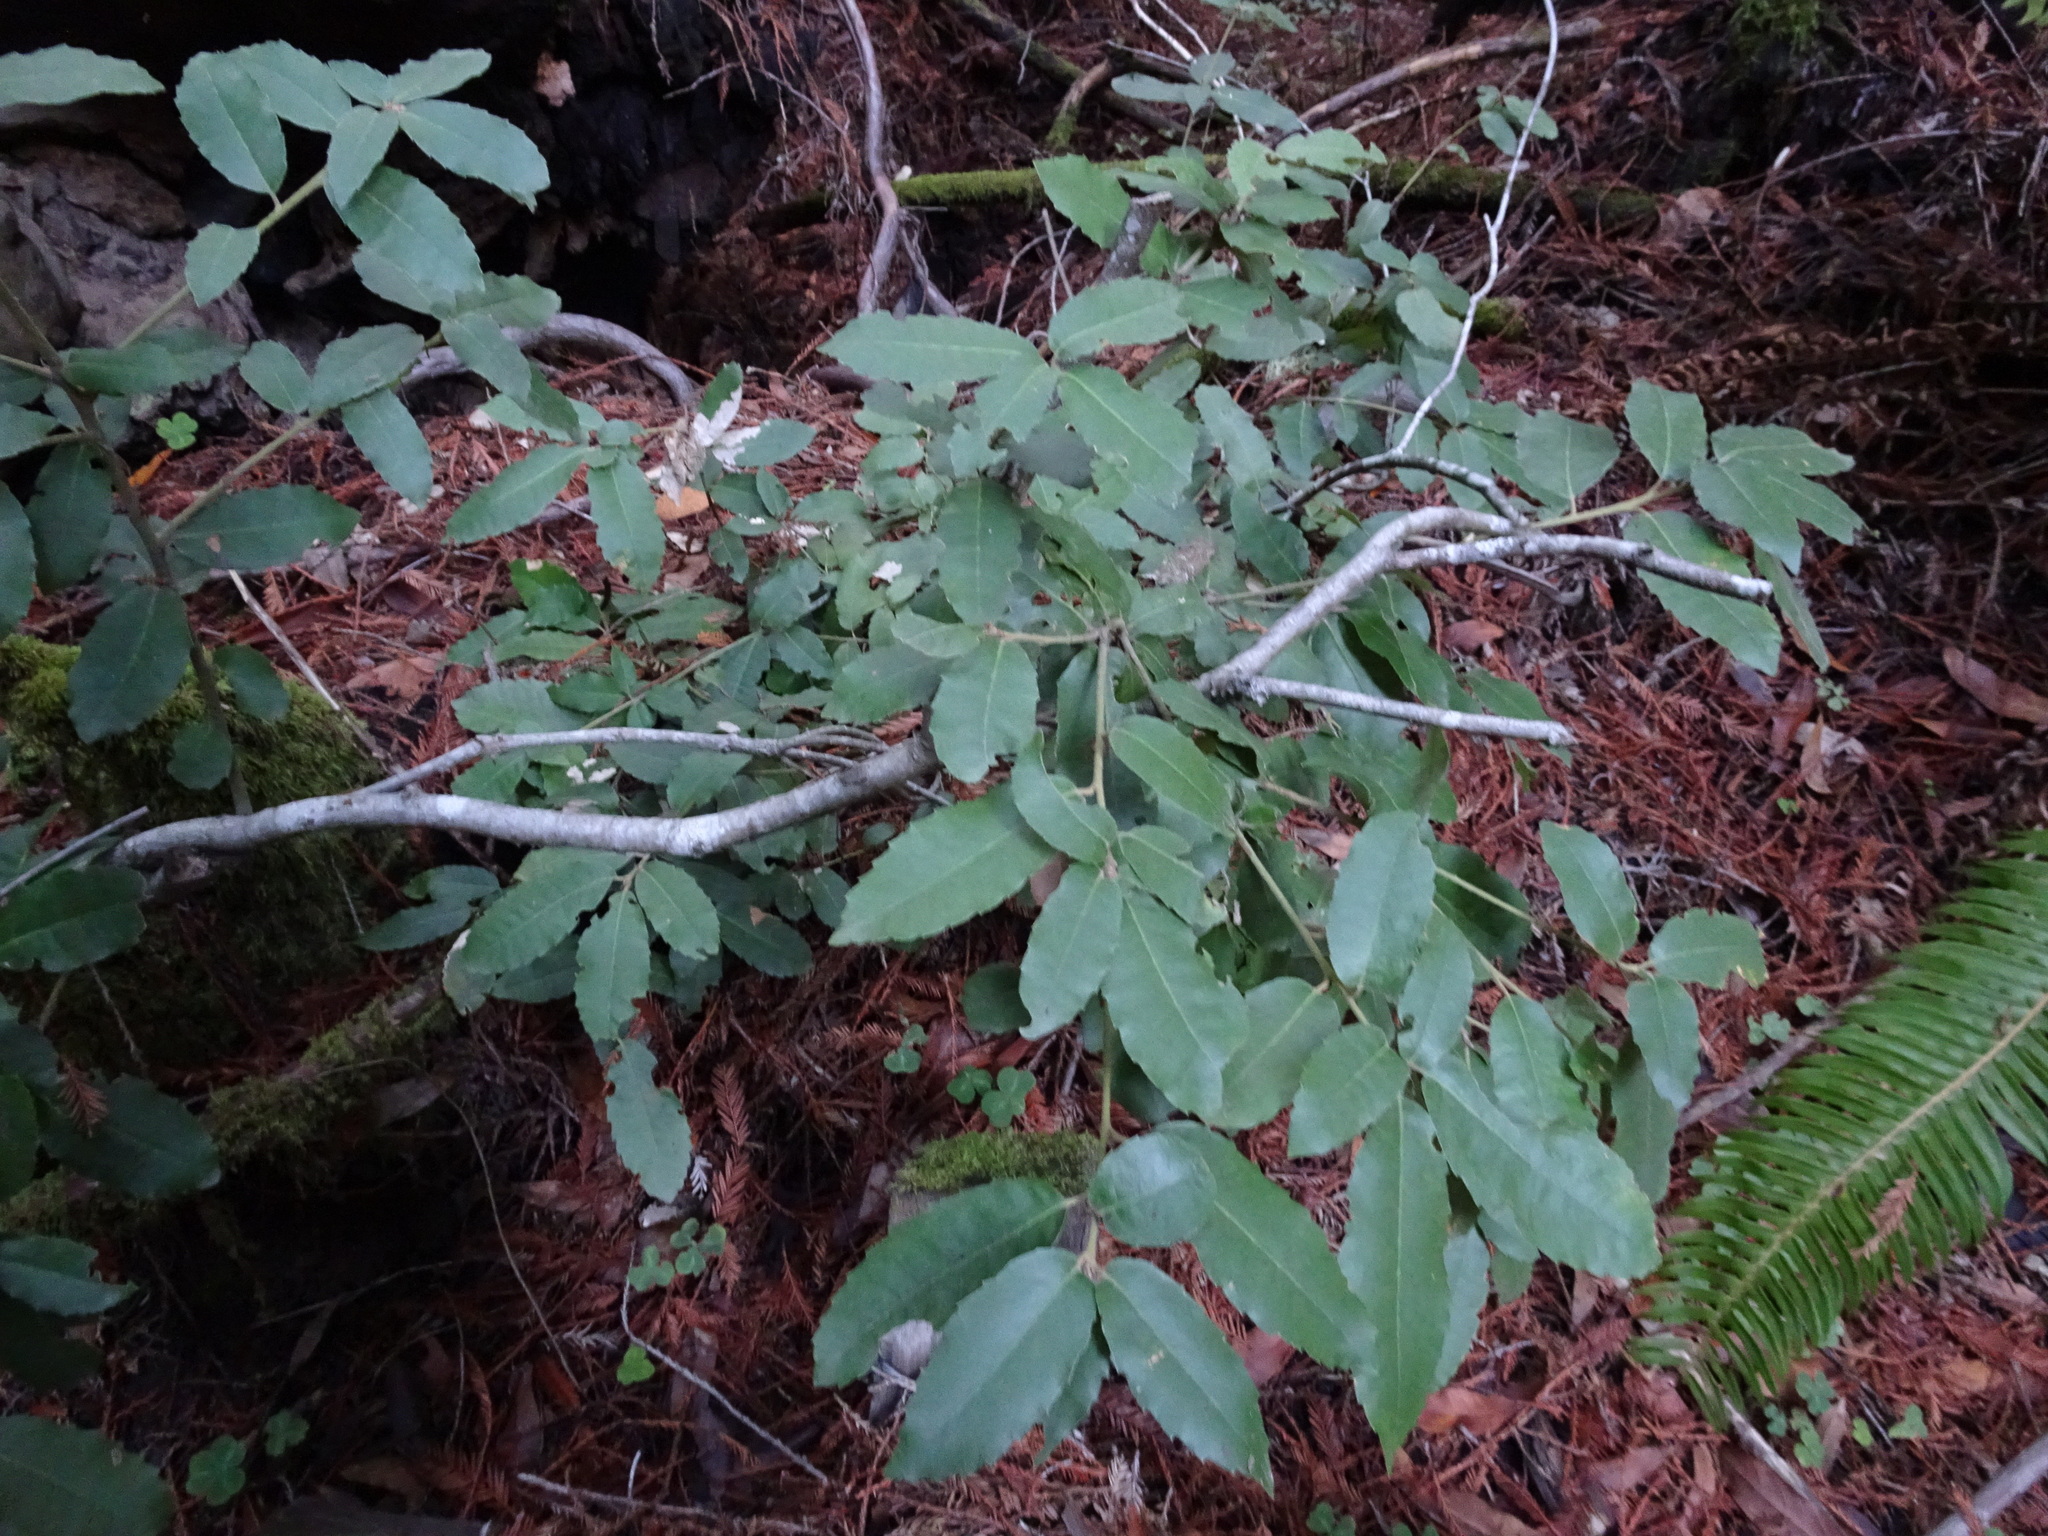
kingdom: Plantae
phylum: Tracheophyta
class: Magnoliopsida
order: Fagales
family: Fagaceae
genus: Notholithocarpus
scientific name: Notholithocarpus densiflorus
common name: Tan bark oak
